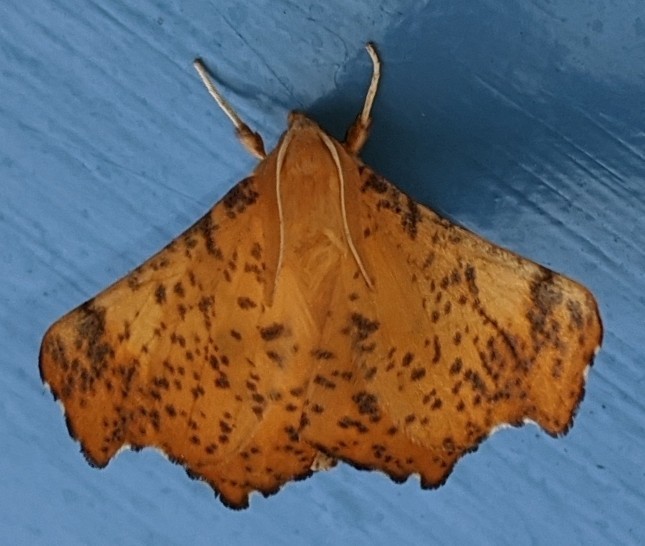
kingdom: Animalia
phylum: Arthropoda
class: Insecta
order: Lepidoptera
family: Geometridae
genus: Ennomos
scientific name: Ennomos magnaria
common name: Maple spanworm
